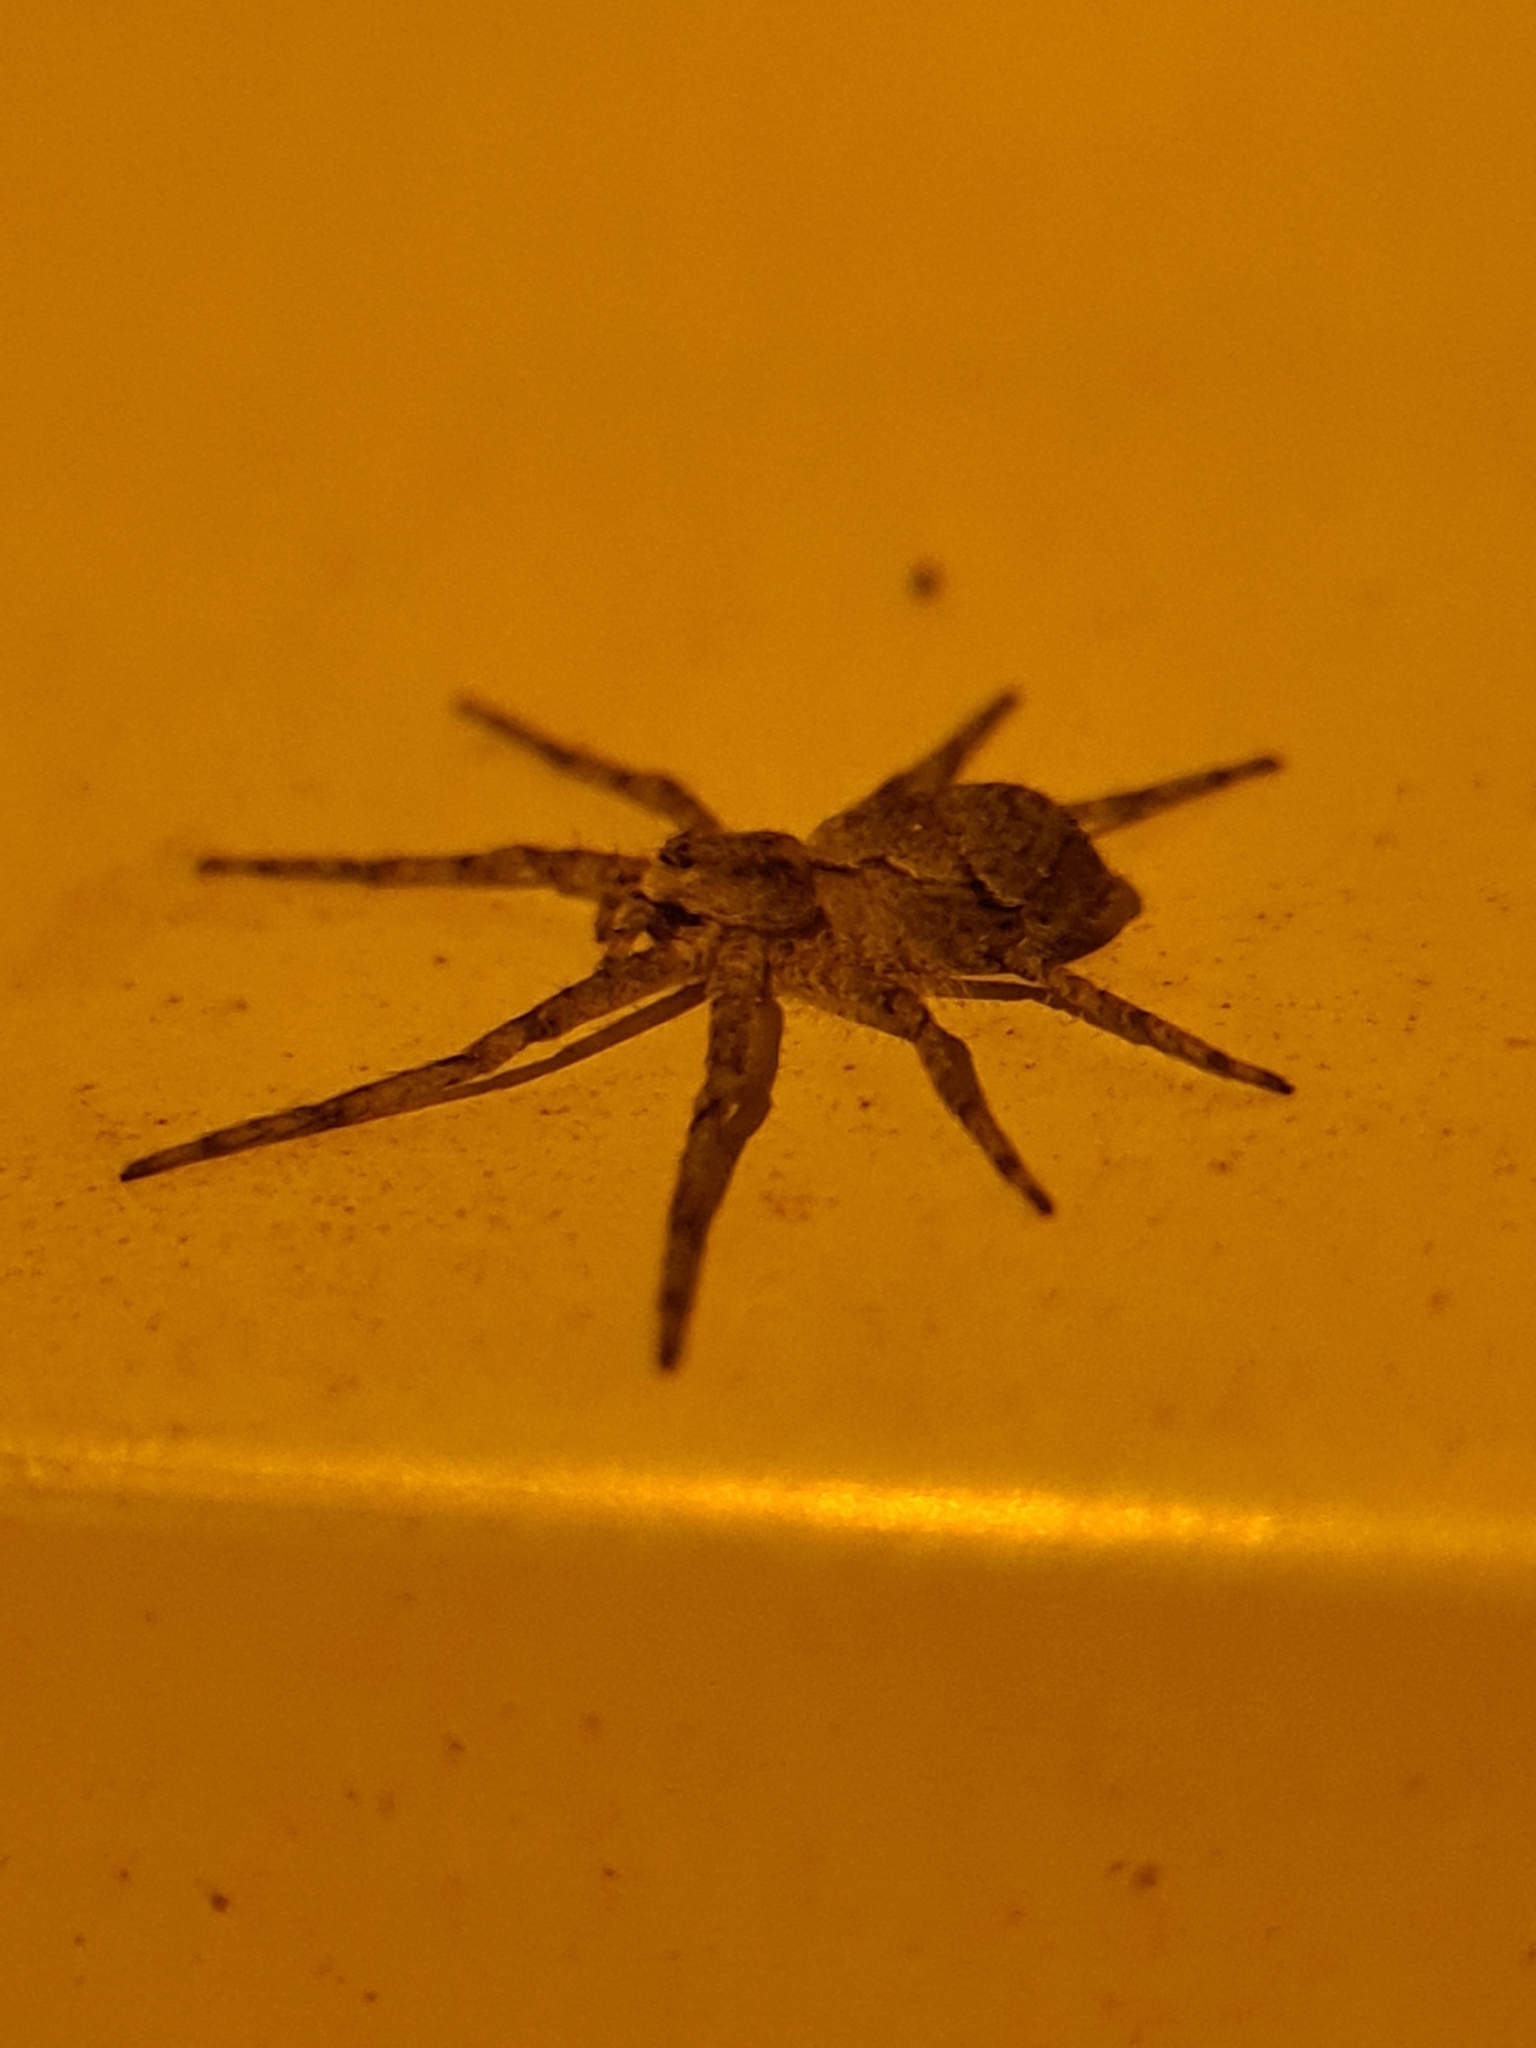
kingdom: Animalia
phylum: Arthropoda
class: Arachnida
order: Araneae
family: Philodromidae
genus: Philodromus
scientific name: Philodromus margaritatus
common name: Lichen running-spider
